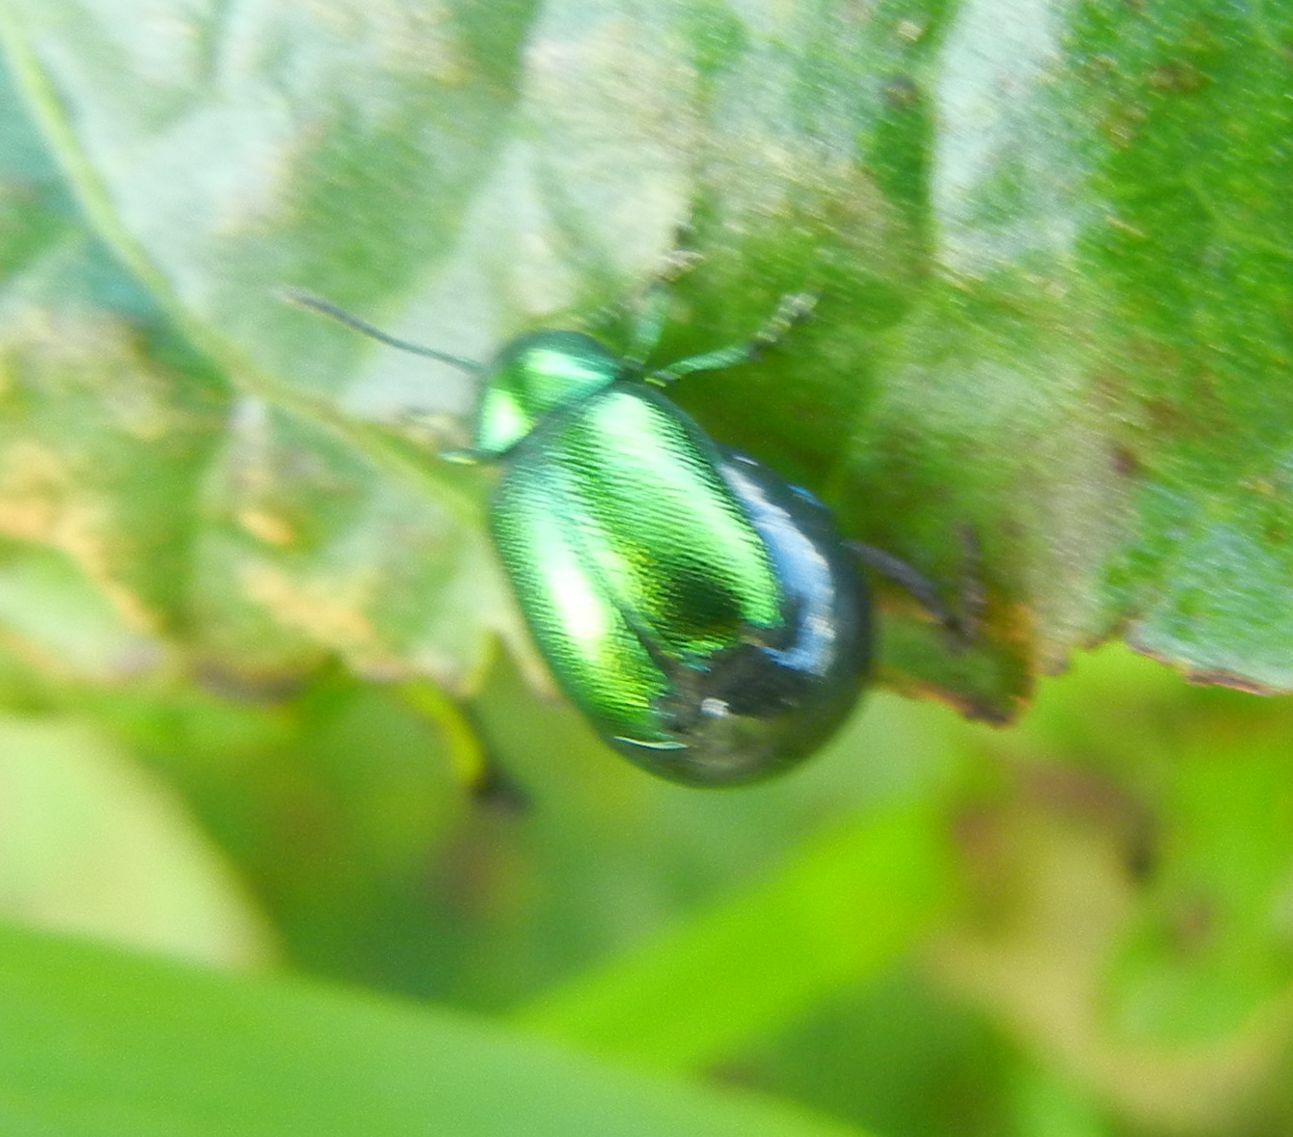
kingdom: Animalia
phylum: Arthropoda
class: Insecta
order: Coleoptera
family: Chrysomelidae
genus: Gastrophysa
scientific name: Gastrophysa viridula
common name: Green dock beetle
